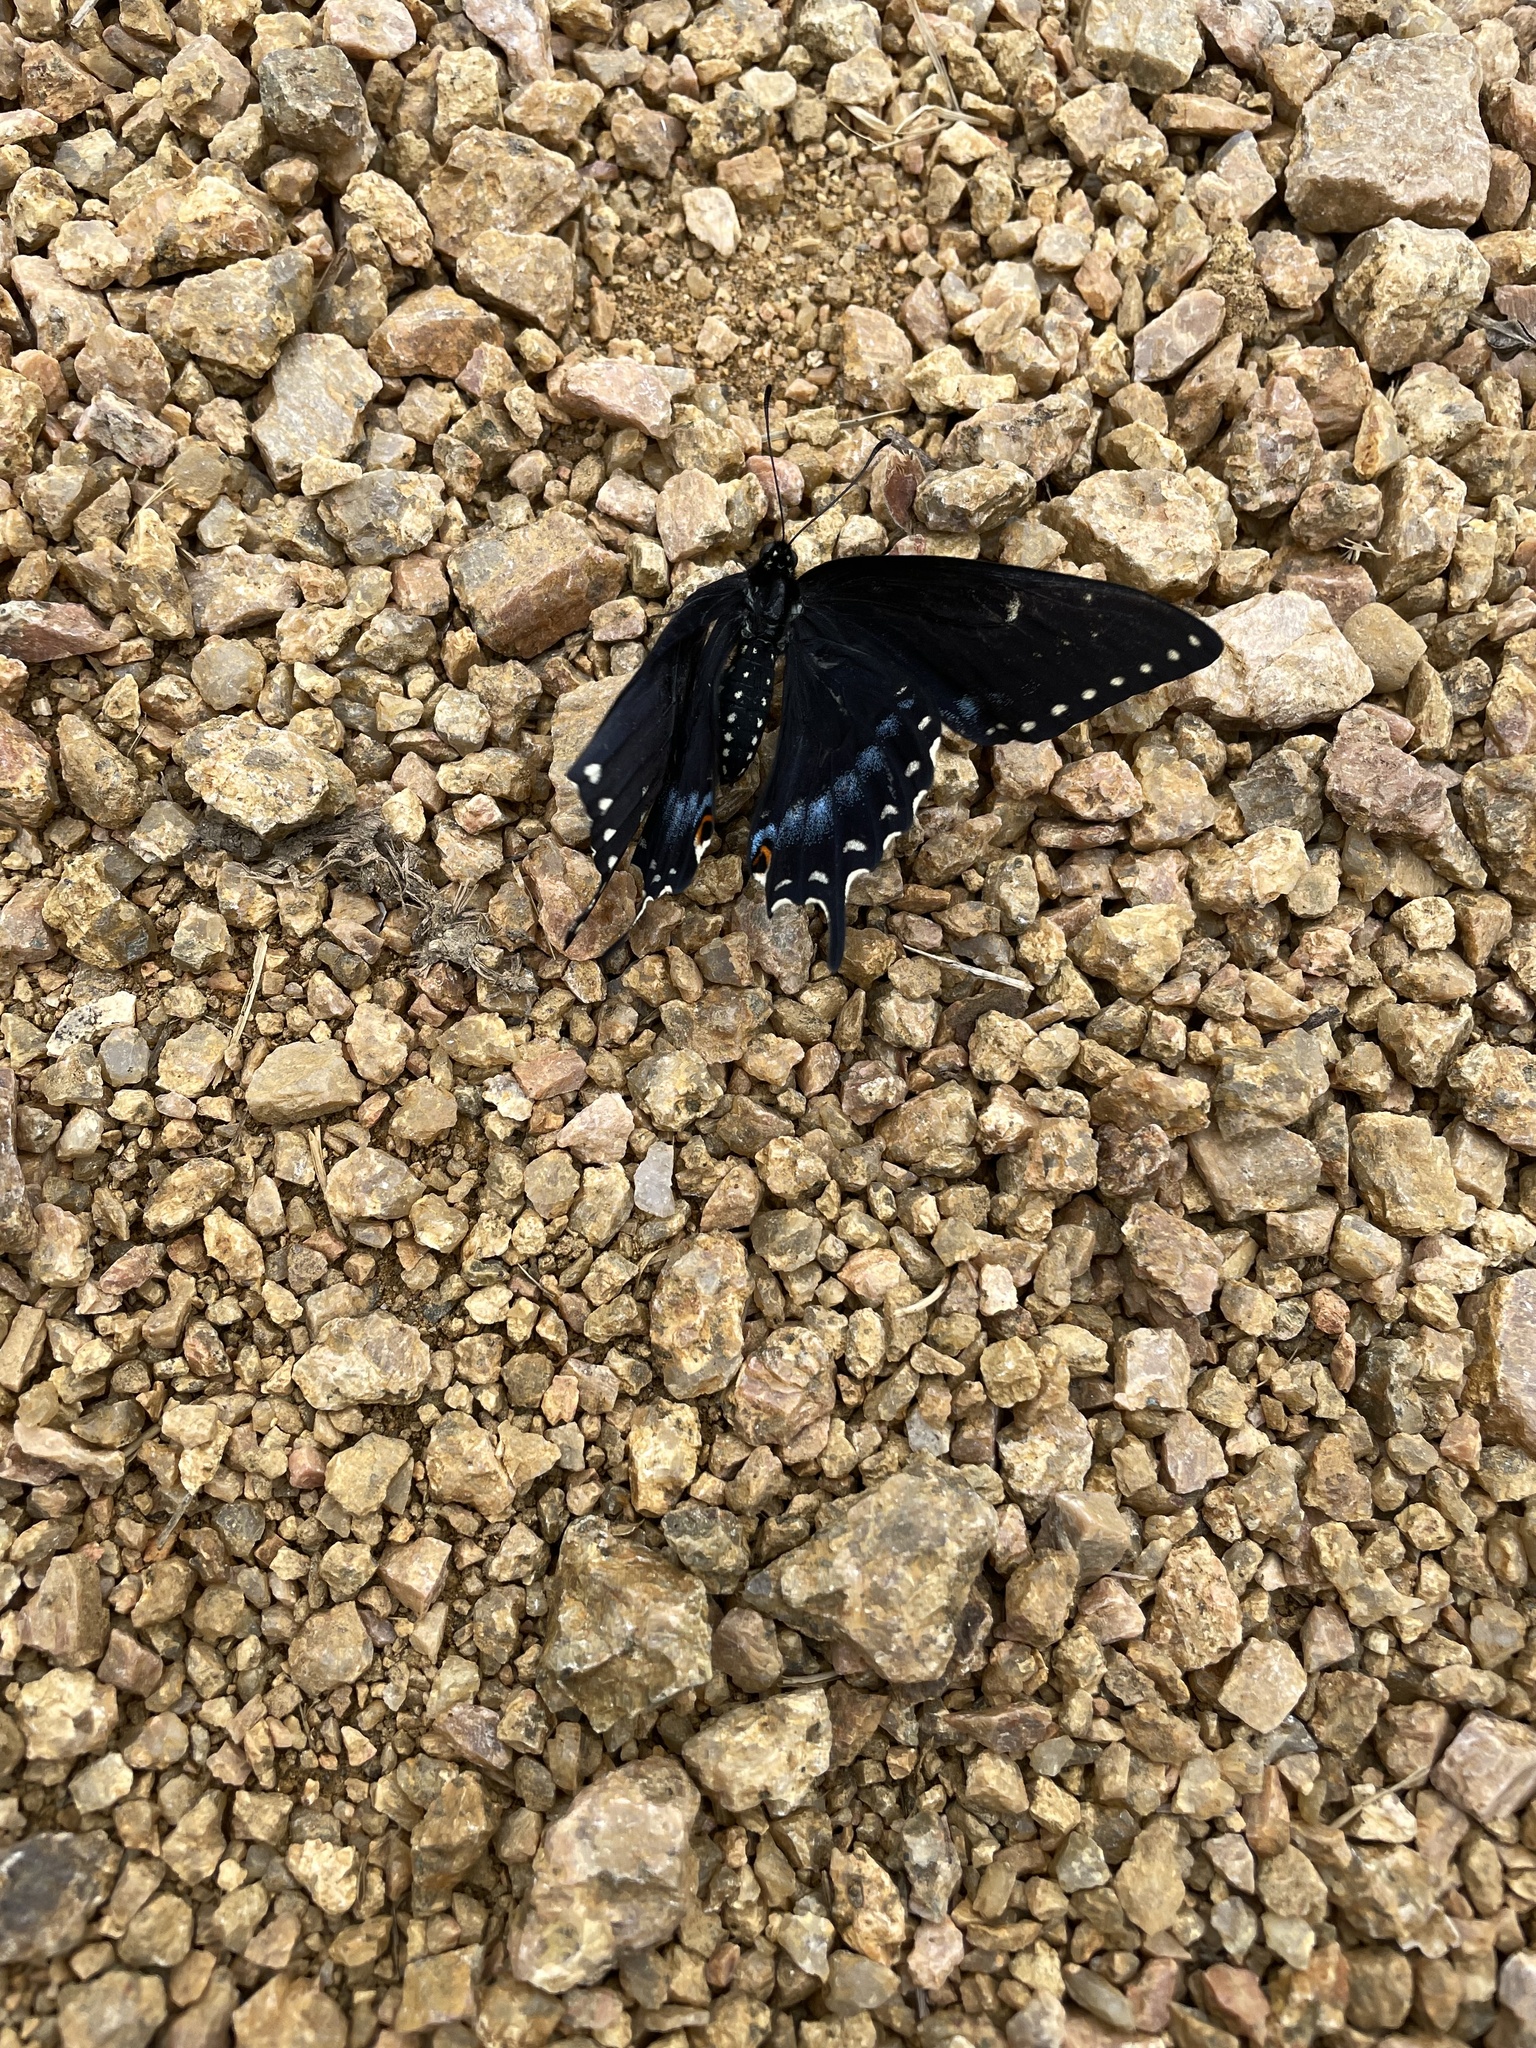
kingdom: Animalia
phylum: Arthropoda
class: Insecta
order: Lepidoptera
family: Papilionidae
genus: Papilio
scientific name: Papilio polyxenes
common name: Black swallowtail
